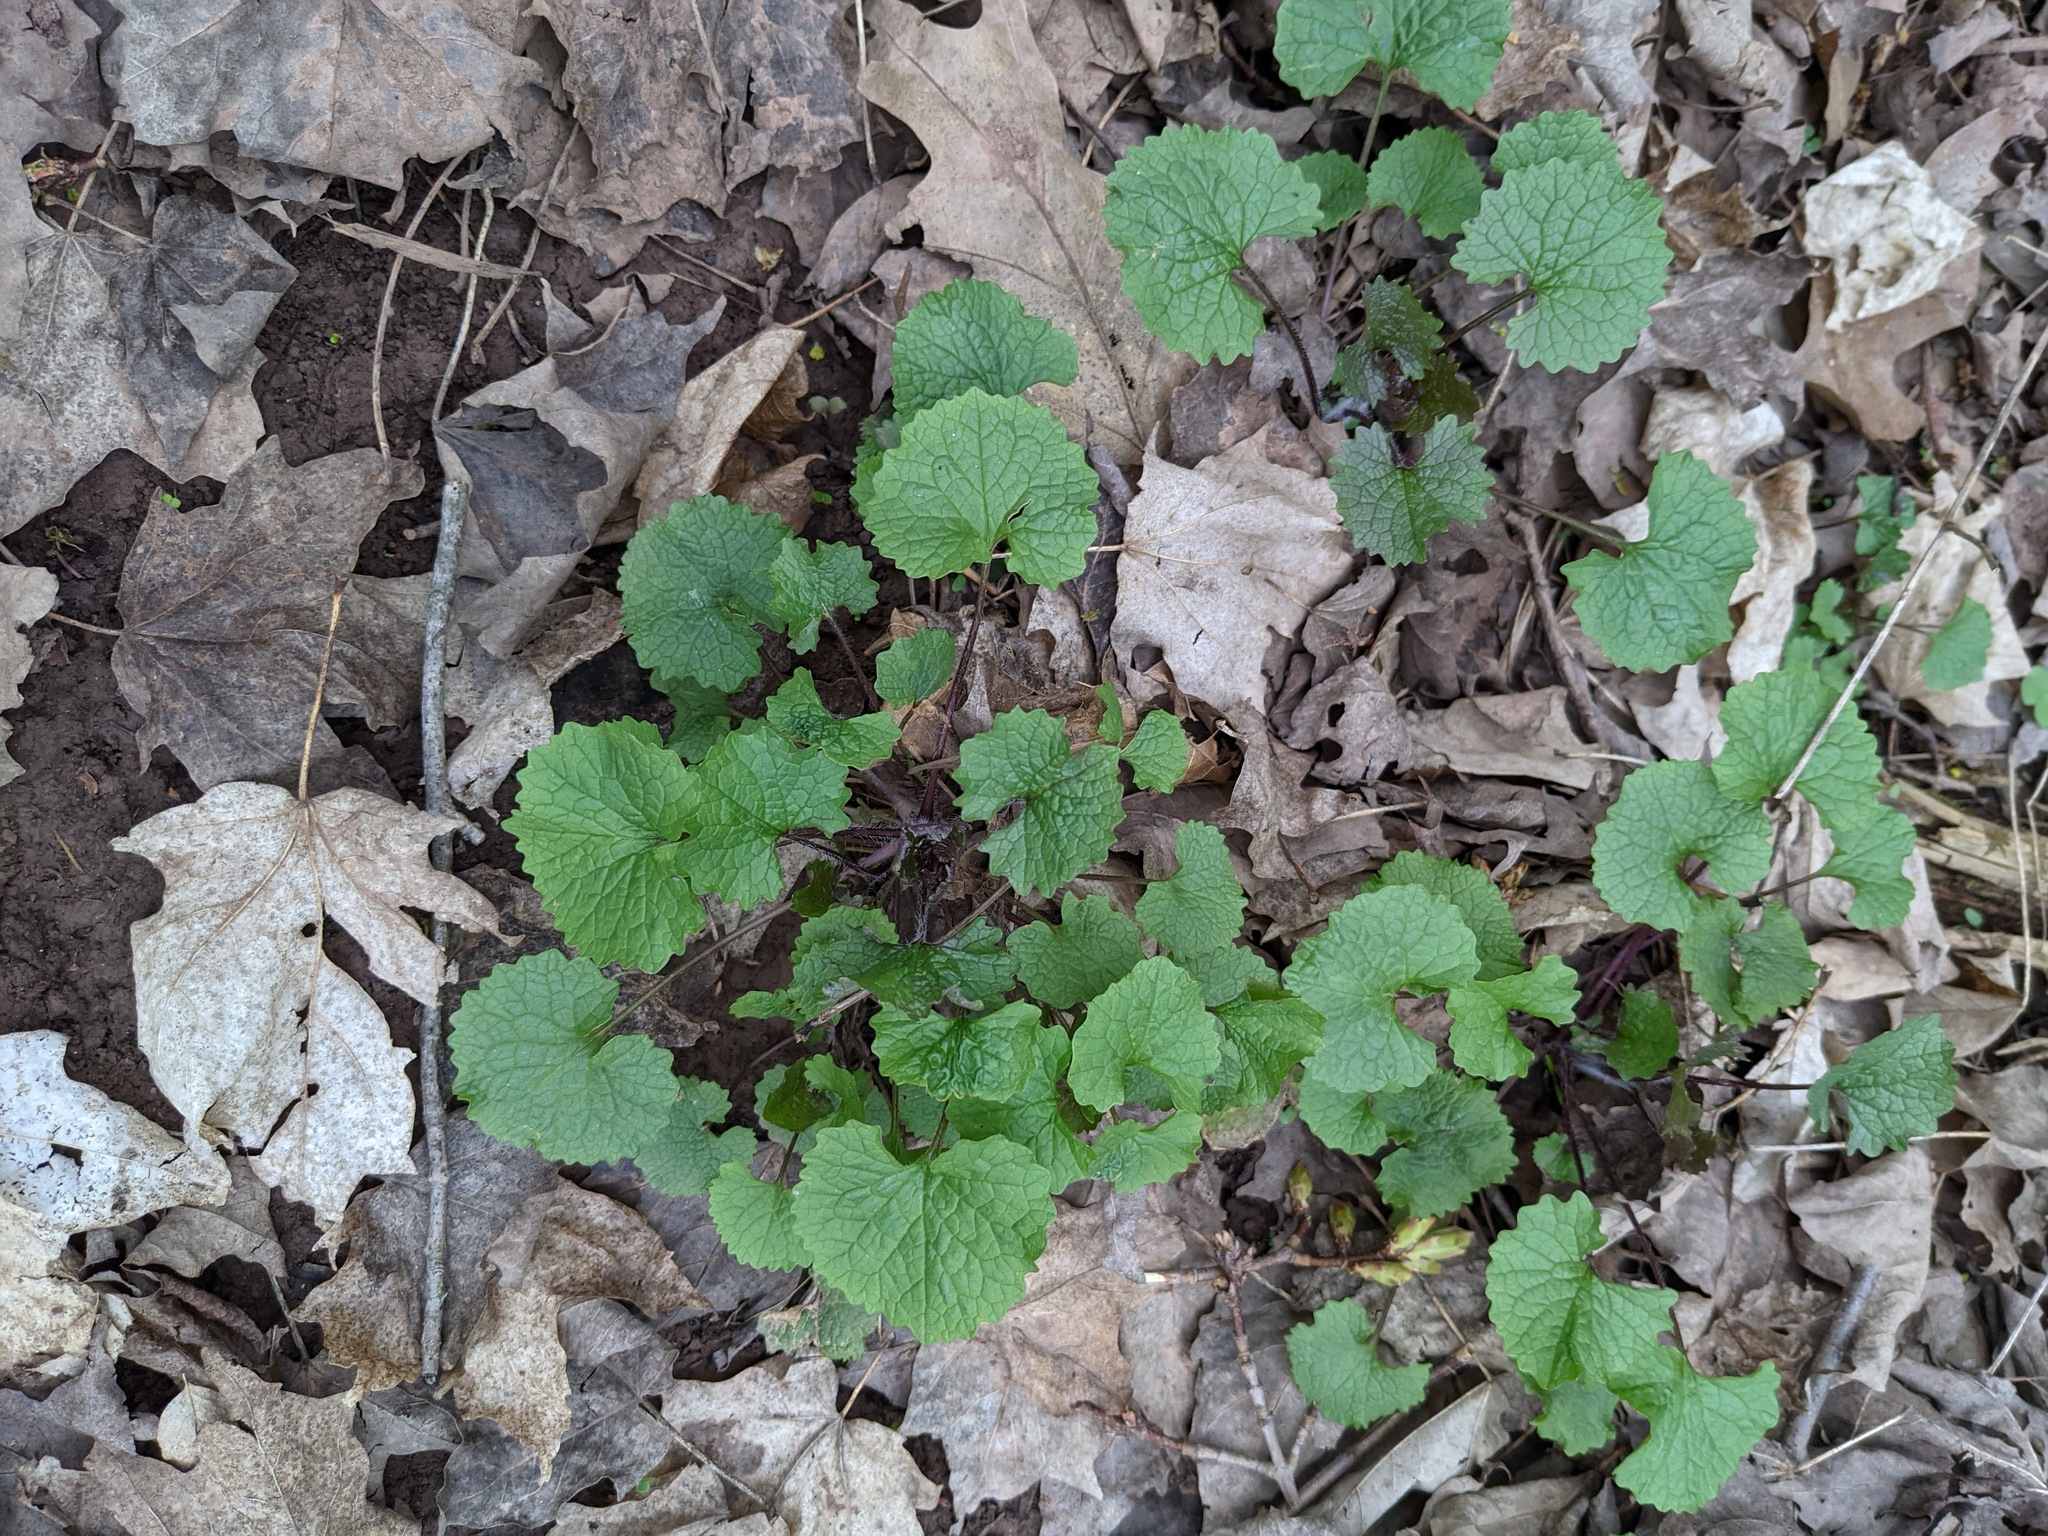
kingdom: Plantae
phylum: Tracheophyta
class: Magnoliopsida
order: Brassicales
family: Brassicaceae
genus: Alliaria
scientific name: Alliaria petiolata
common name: Garlic mustard
